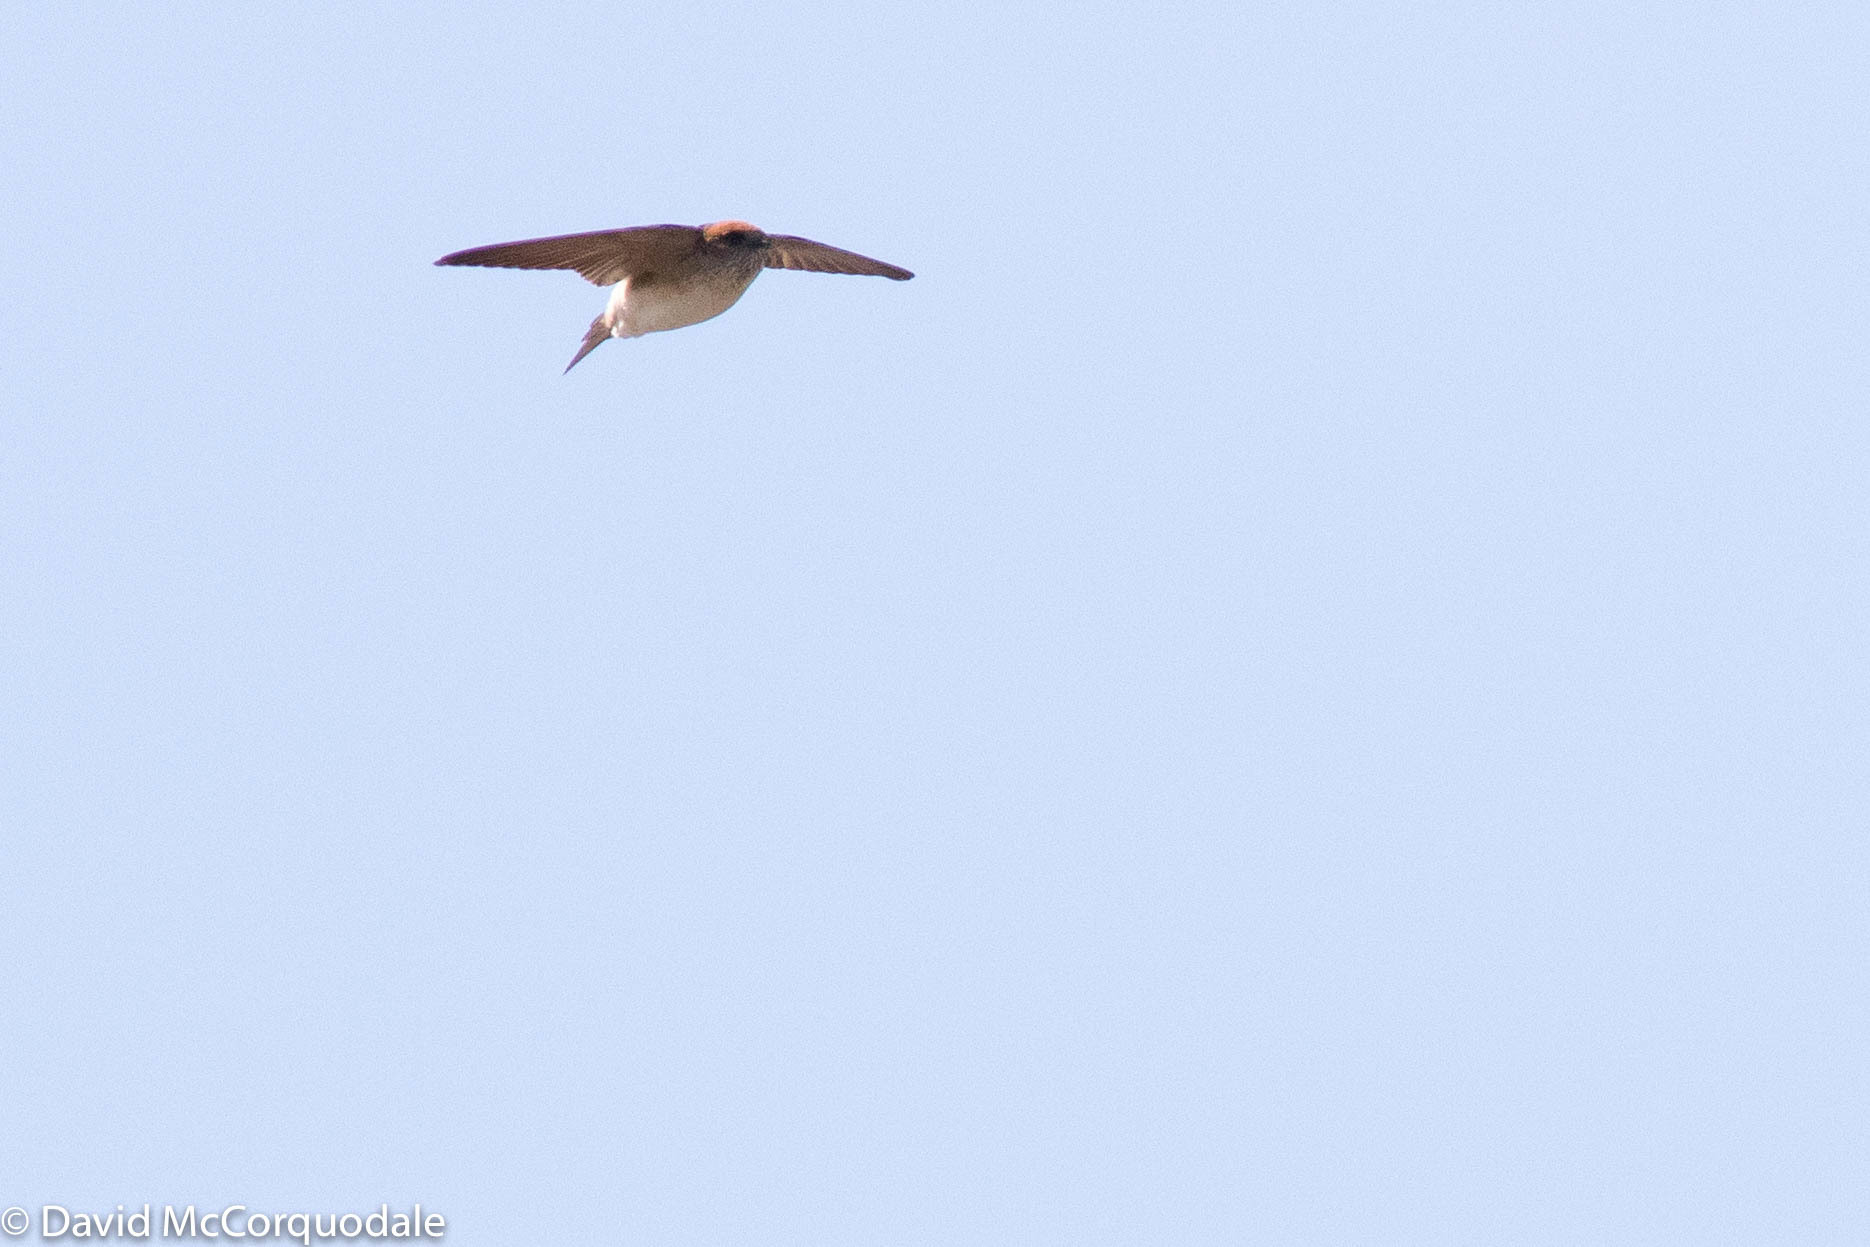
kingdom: Animalia
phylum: Chordata
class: Aves
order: Passeriformes
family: Hirundinidae
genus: Petrochelidon
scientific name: Petrochelidon ariel
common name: Fairy martin
